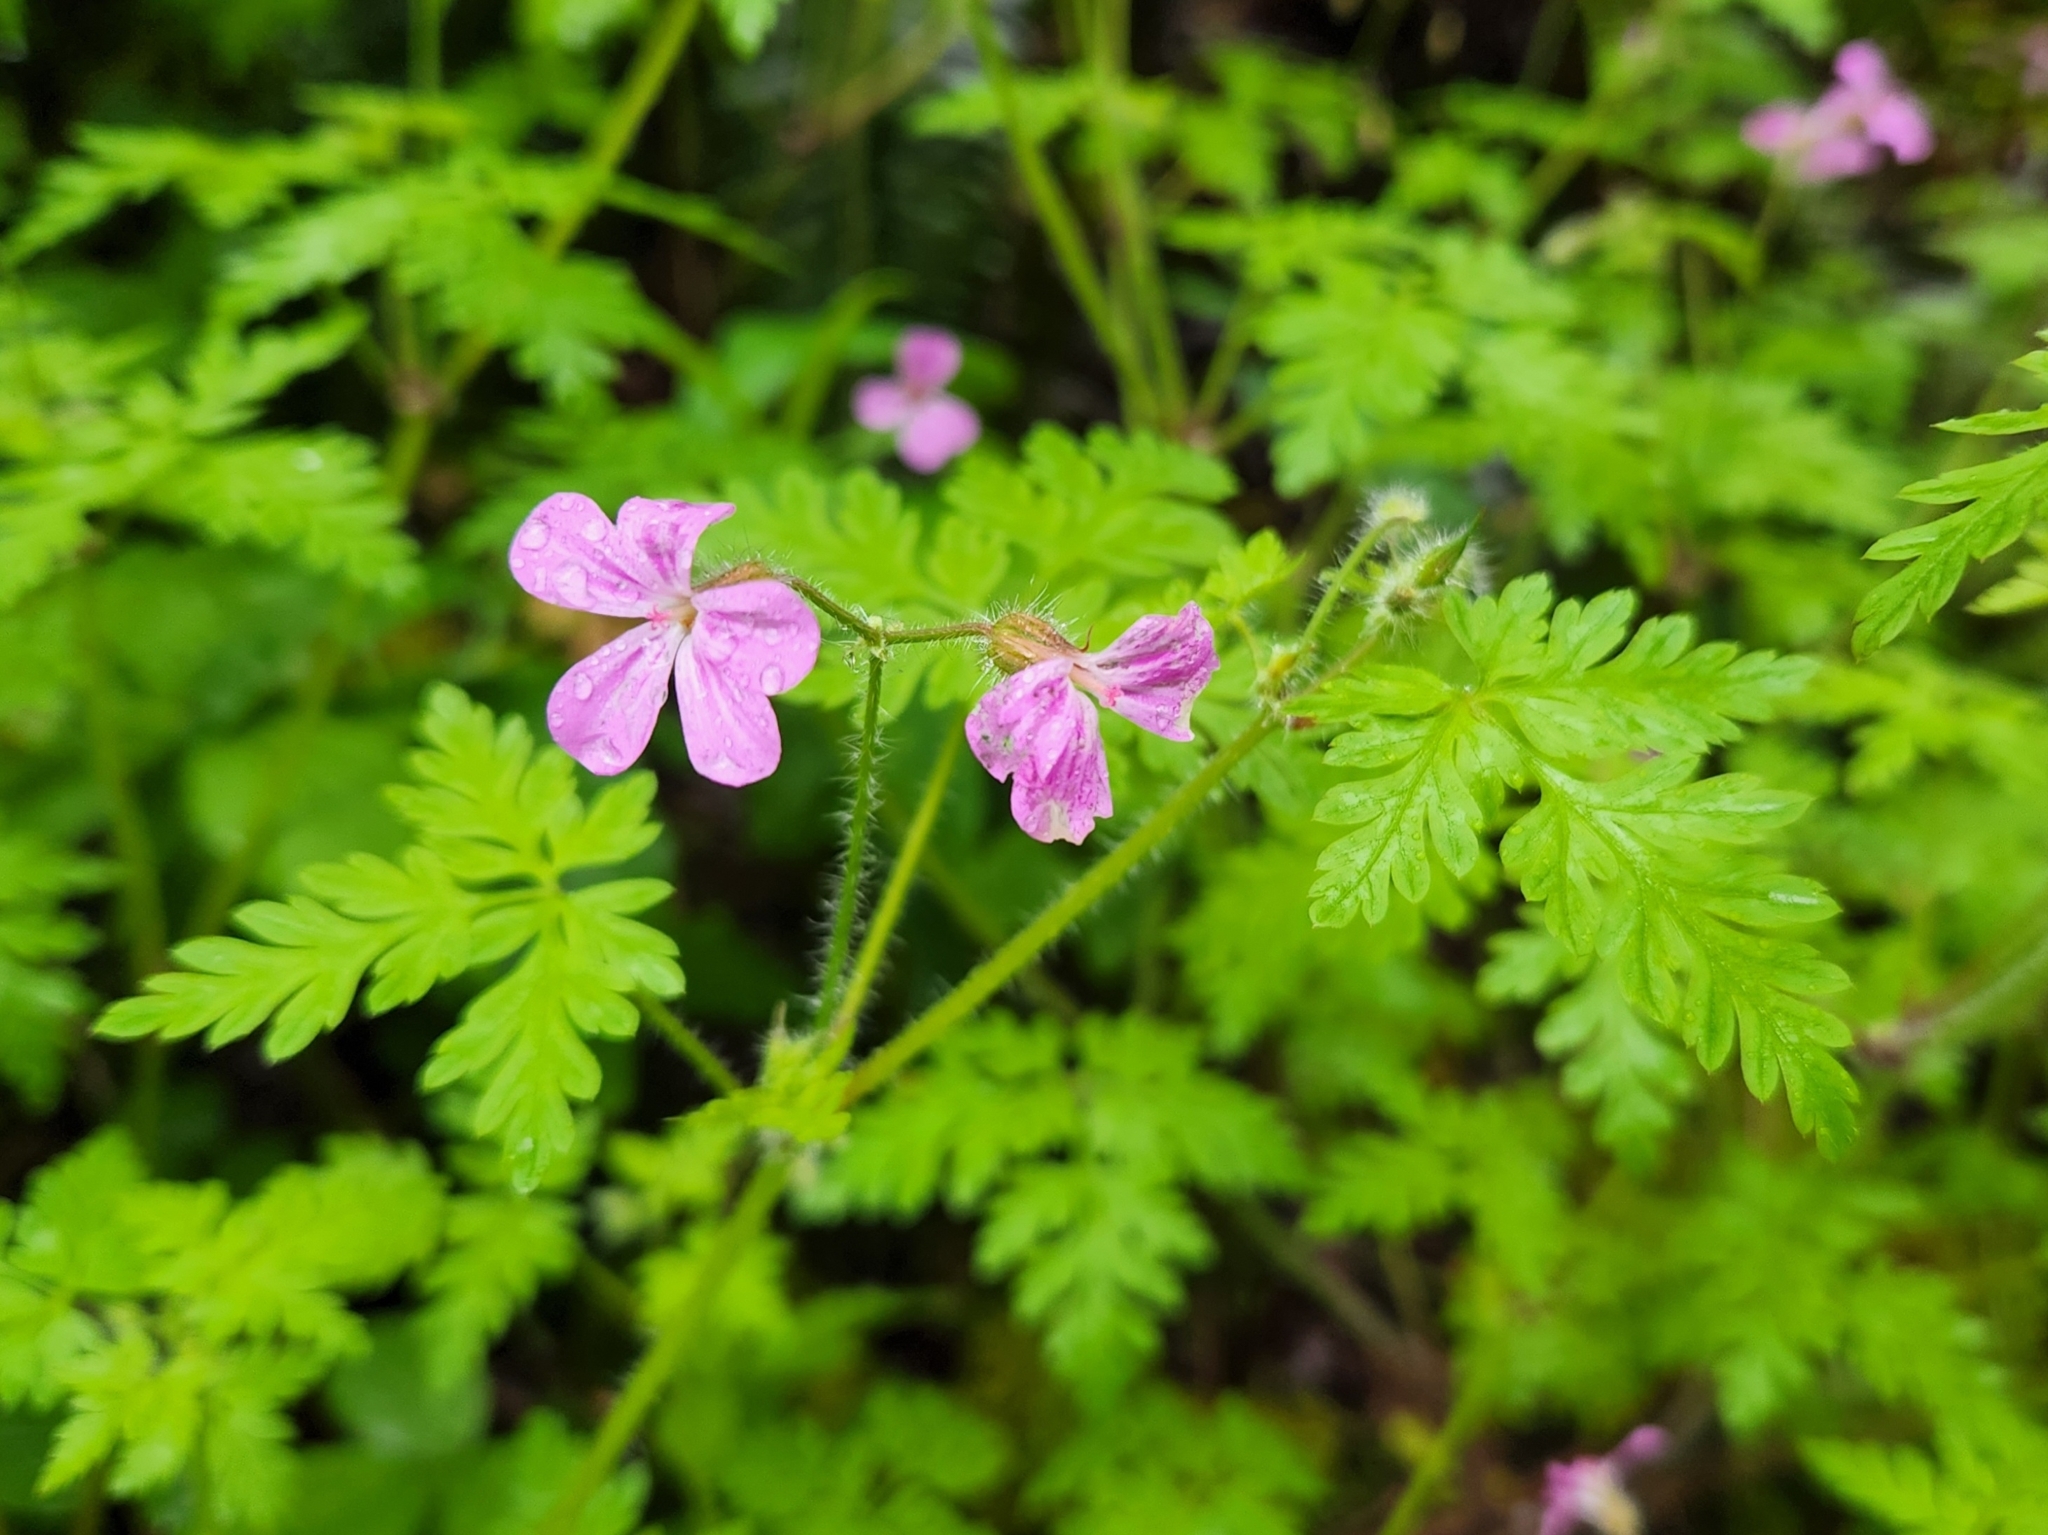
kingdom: Plantae
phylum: Tracheophyta
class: Magnoliopsida
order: Geraniales
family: Geraniaceae
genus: Geranium
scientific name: Geranium robertianum
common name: Herb-robert
